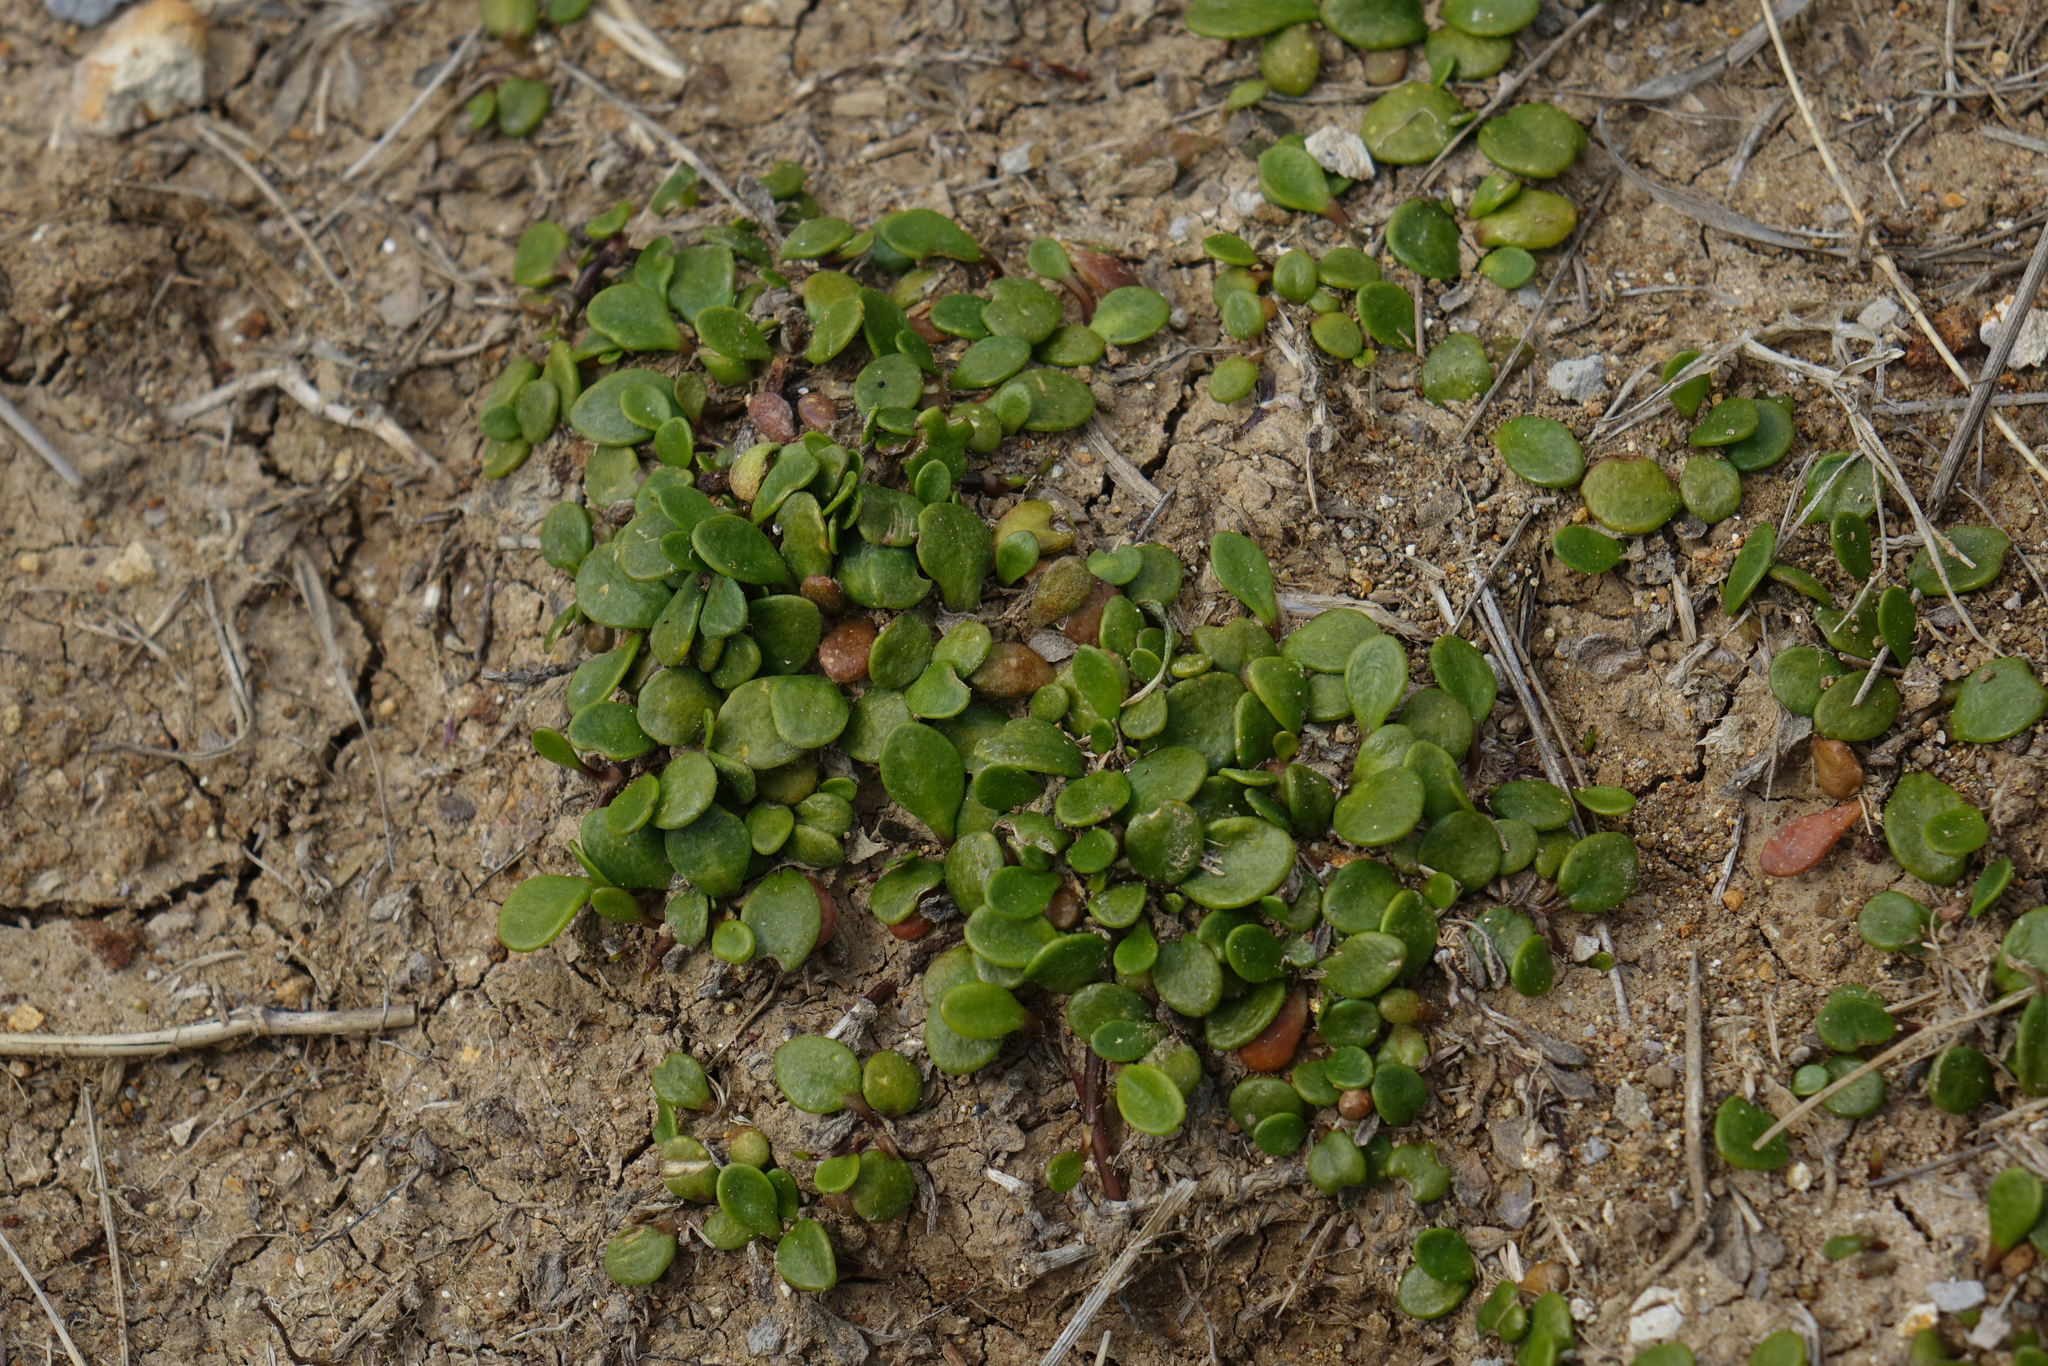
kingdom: Plantae
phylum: Tracheophyta
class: Magnoliopsida
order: Asterales
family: Goodeniaceae
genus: Goodenia
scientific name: Goodenia radicans
